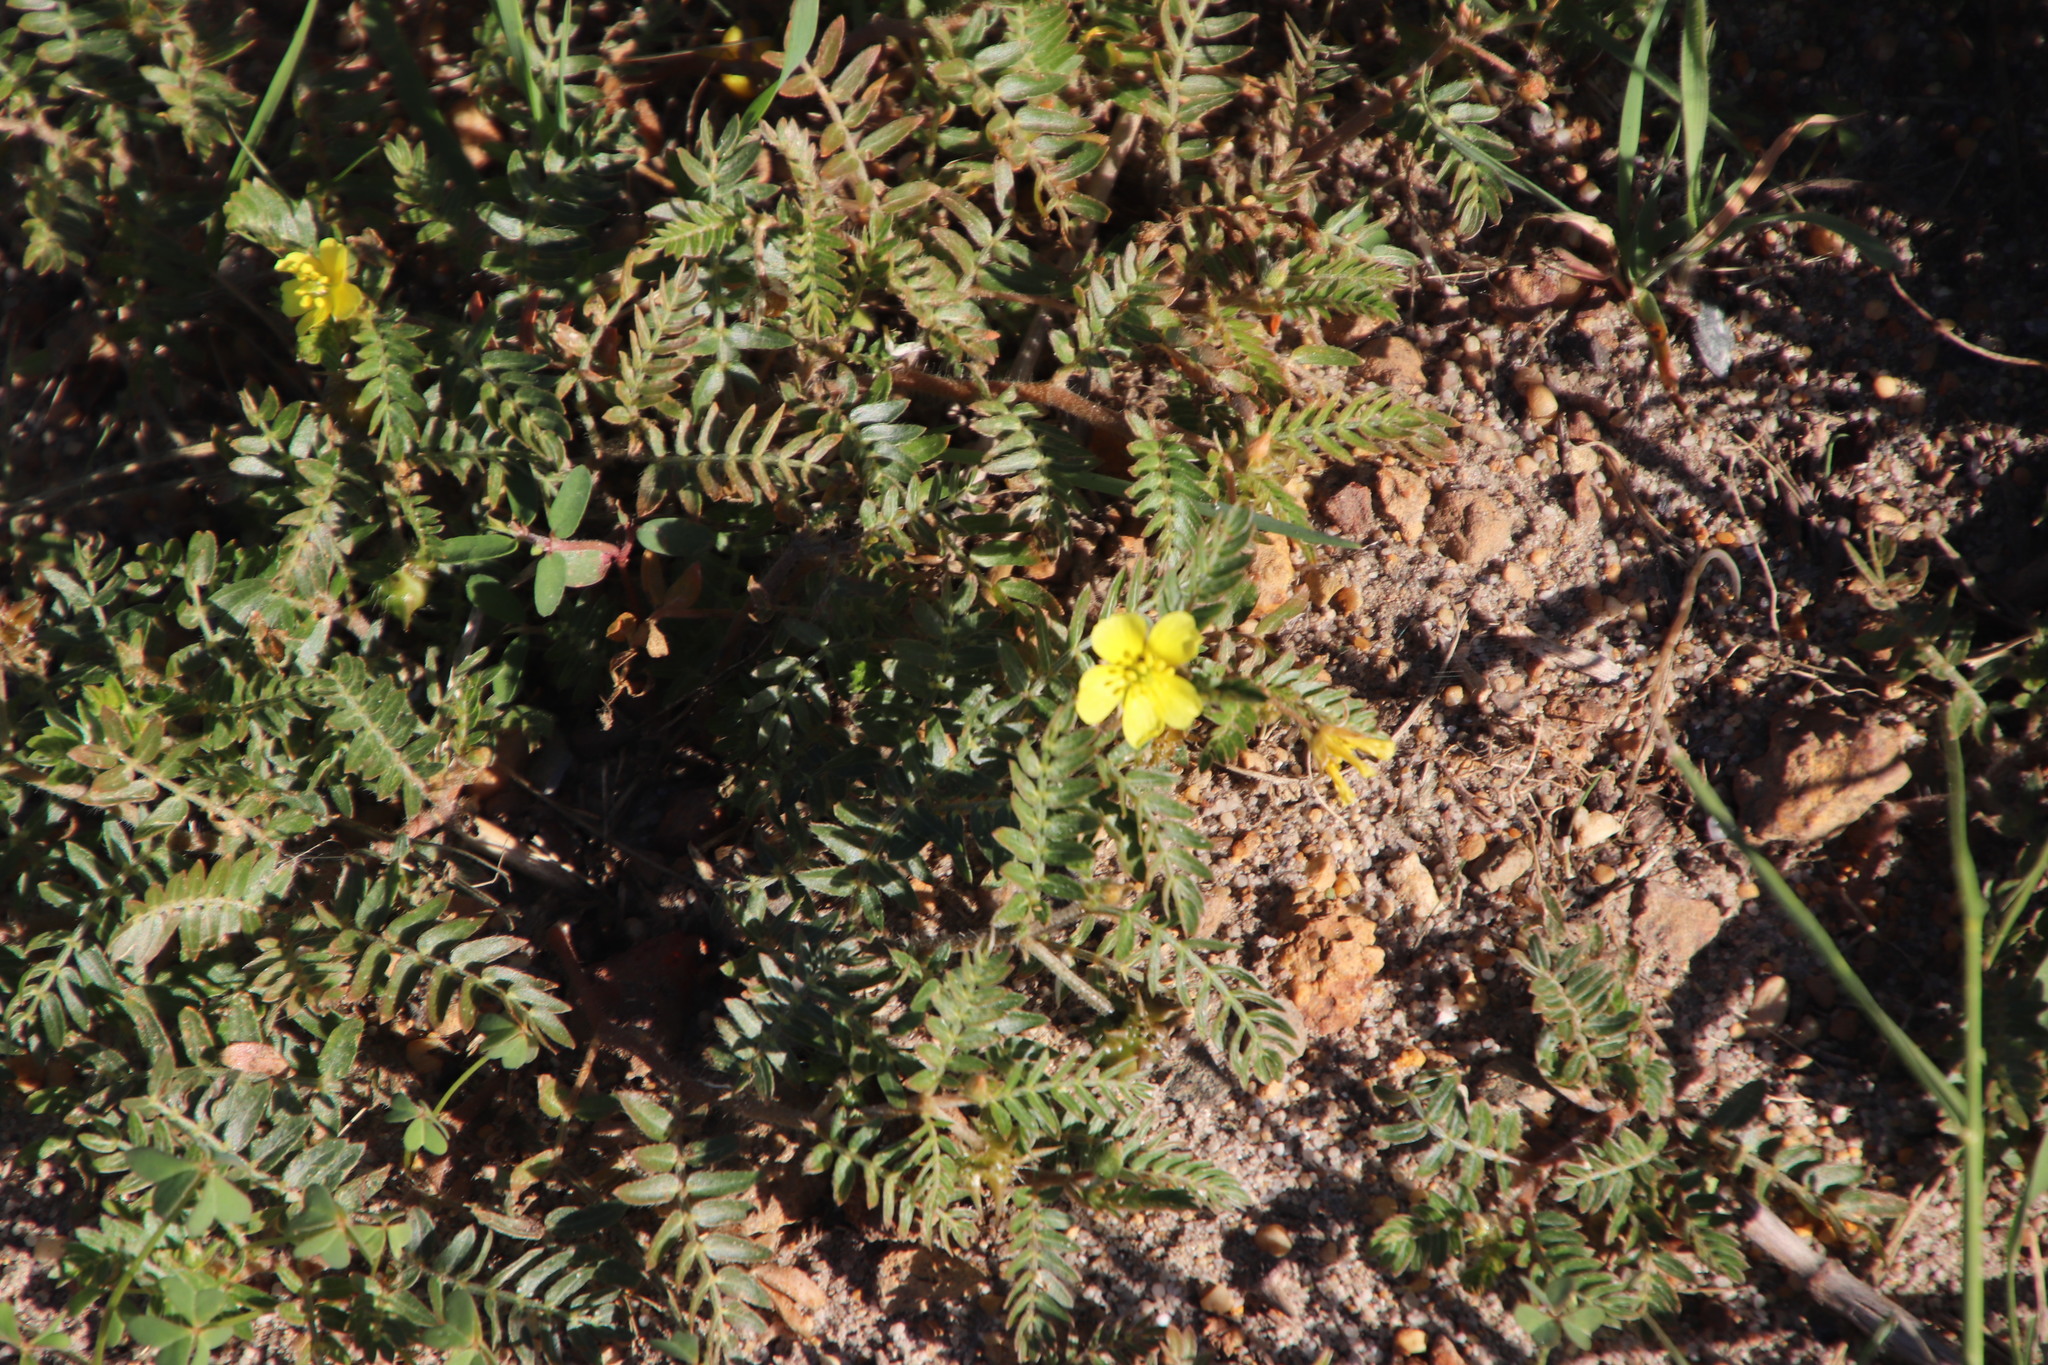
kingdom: Plantae
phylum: Tracheophyta
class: Magnoliopsida
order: Zygophyllales
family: Zygophyllaceae
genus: Tribulus
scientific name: Tribulus terrestris
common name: Puncturevine
